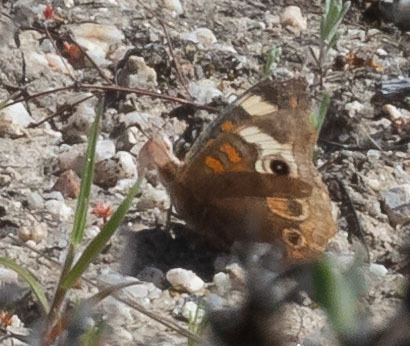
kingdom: Animalia
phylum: Arthropoda
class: Insecta
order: Lepidoptera
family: Nymphalidae
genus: Junonia
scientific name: Junonia grisea
